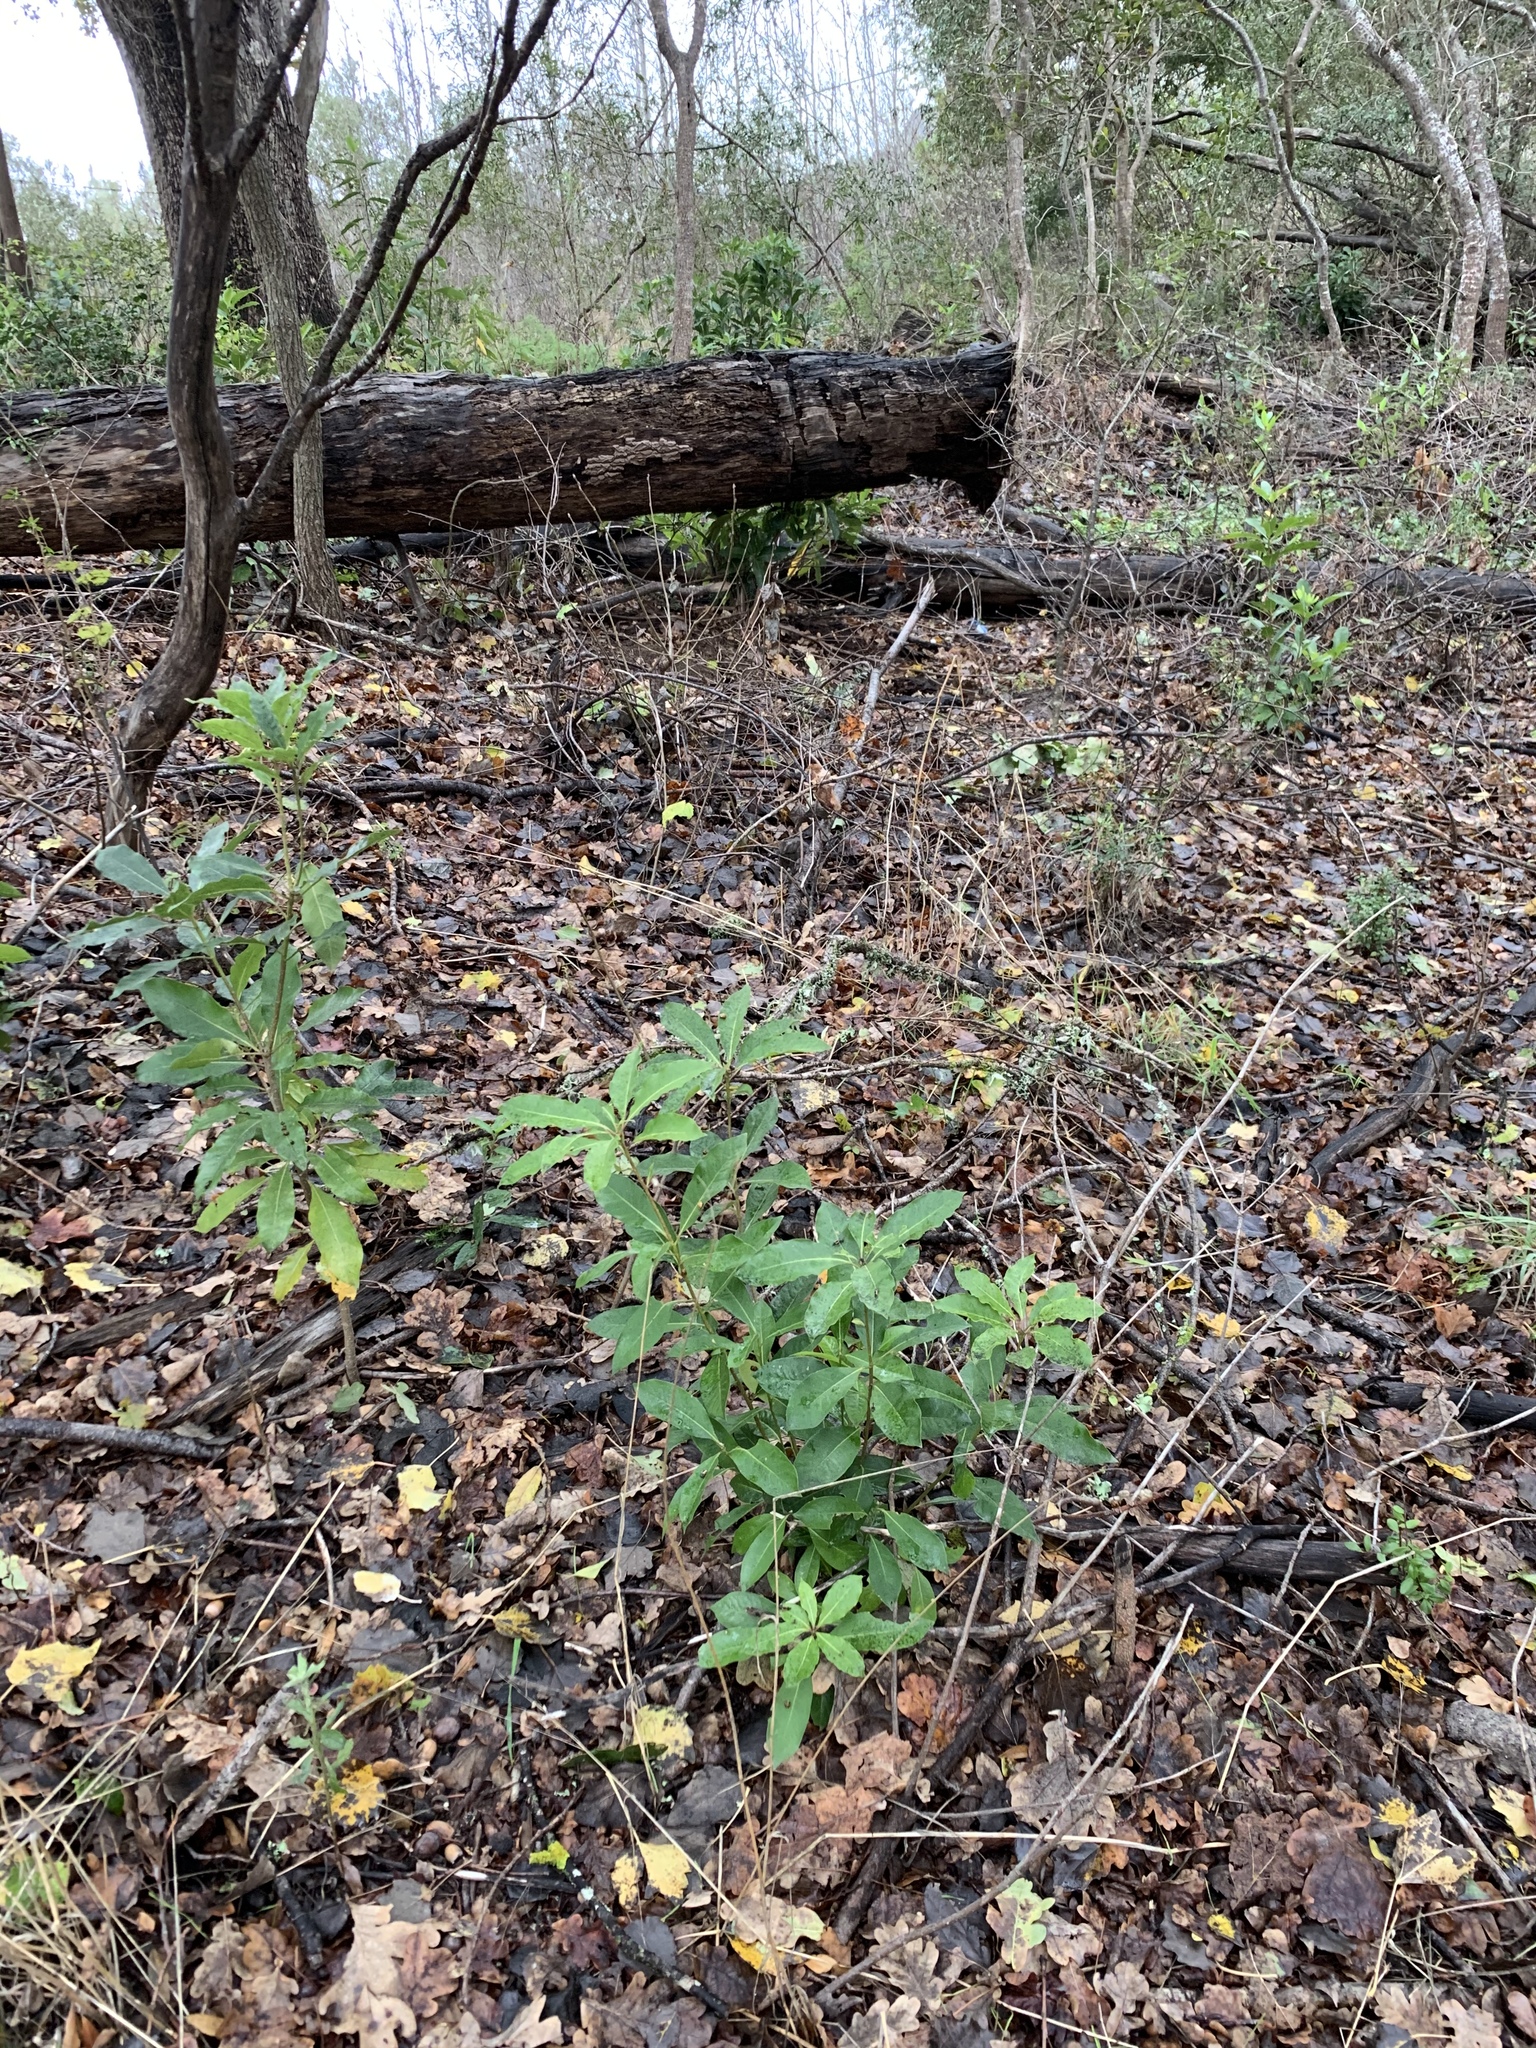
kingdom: Plantae
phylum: Tracheophyta
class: Magnoliopsida
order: Apiales
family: Pittosporaceae
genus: Pittosporum
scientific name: Pittosporum undulatum
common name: Australian cheesewood
